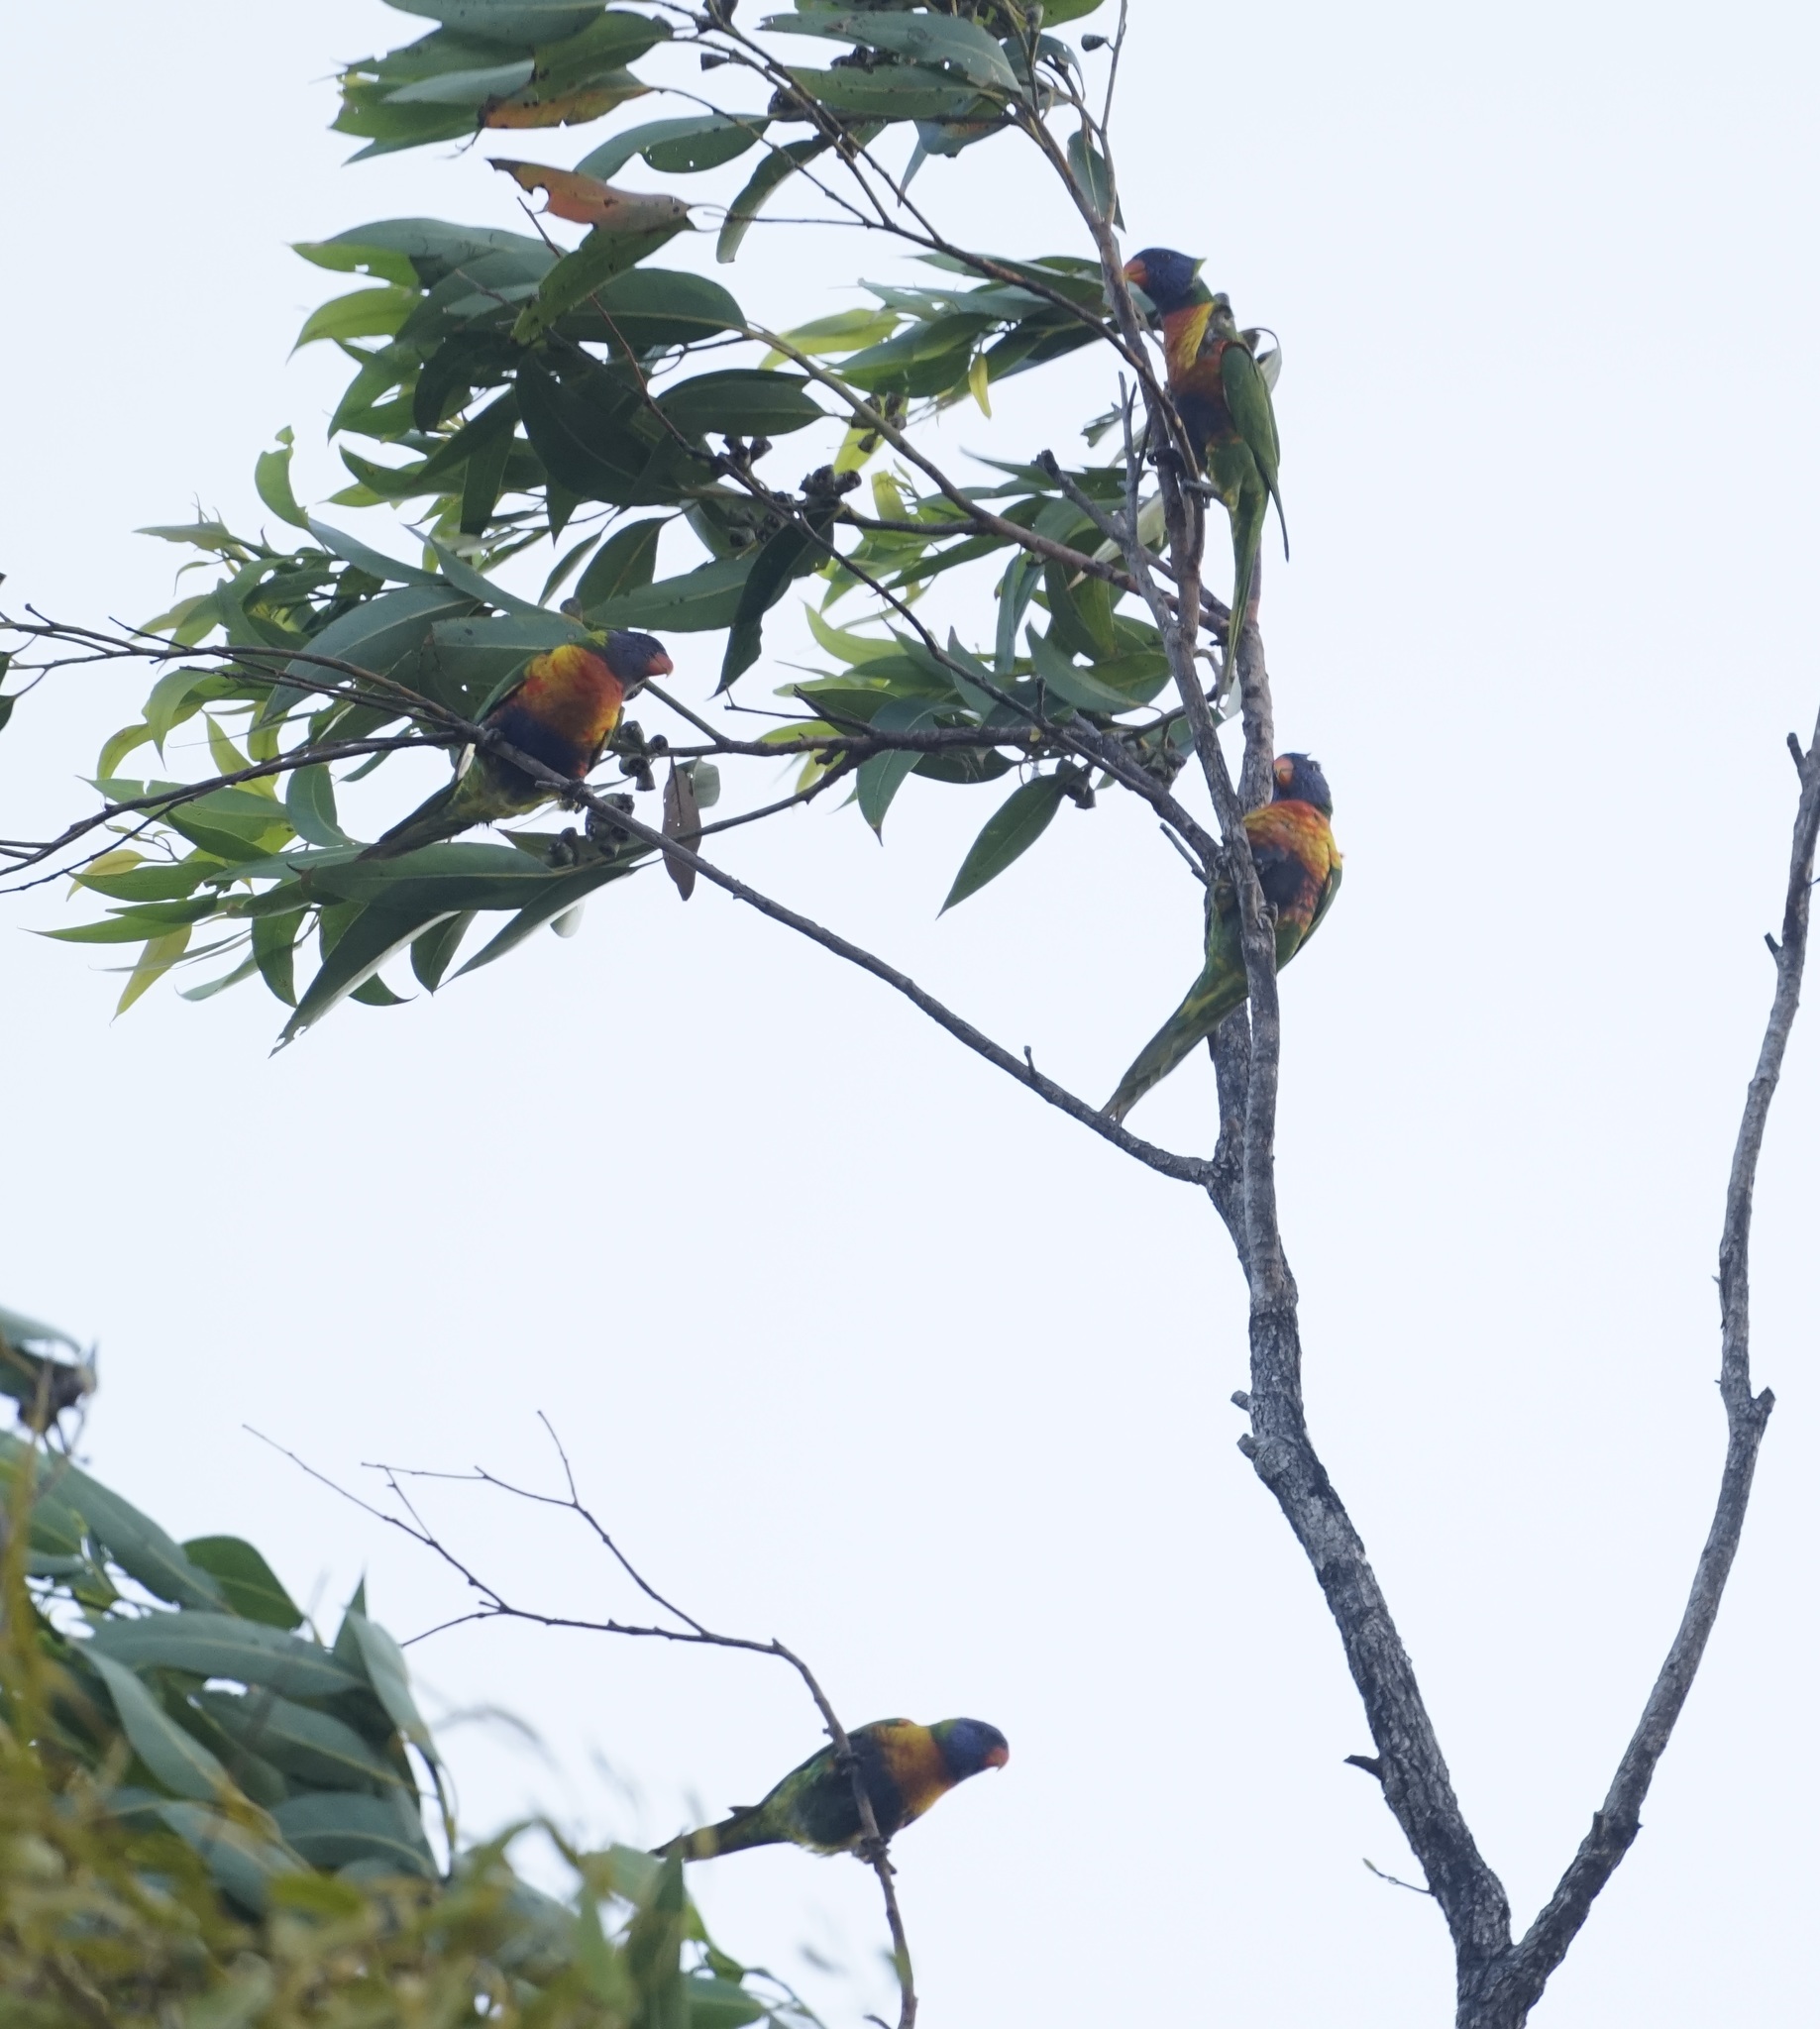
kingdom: Animalia
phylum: Chordata
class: Aves
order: Psittaciformes
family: Psittacidae
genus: Trichoglossus
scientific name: Trichoglossus haematodus
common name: Coconut lorikeet
